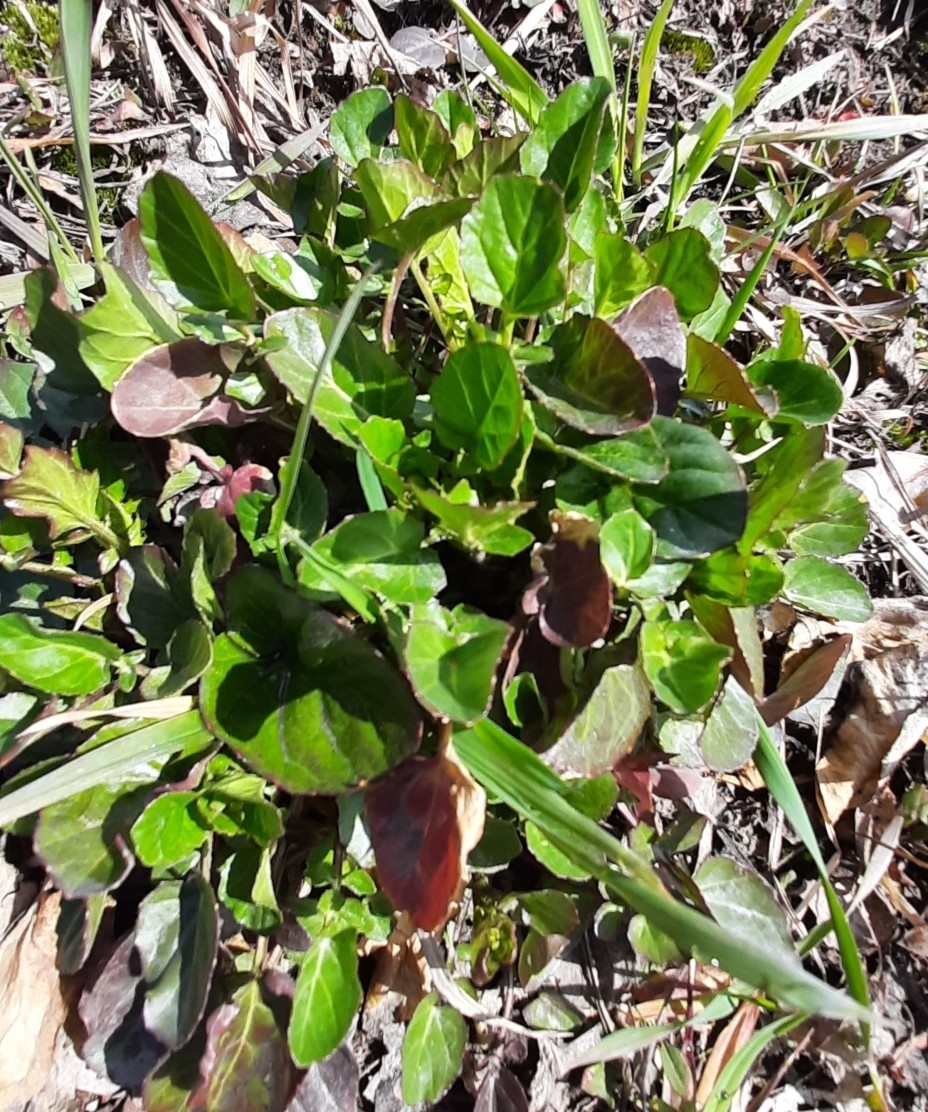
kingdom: Plantae
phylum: Tracheophyta
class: Magnoliopsida
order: Brassicales
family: Brassicaceae
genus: Barbarea
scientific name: Barbarea vulgaris
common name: Cressy-greens
